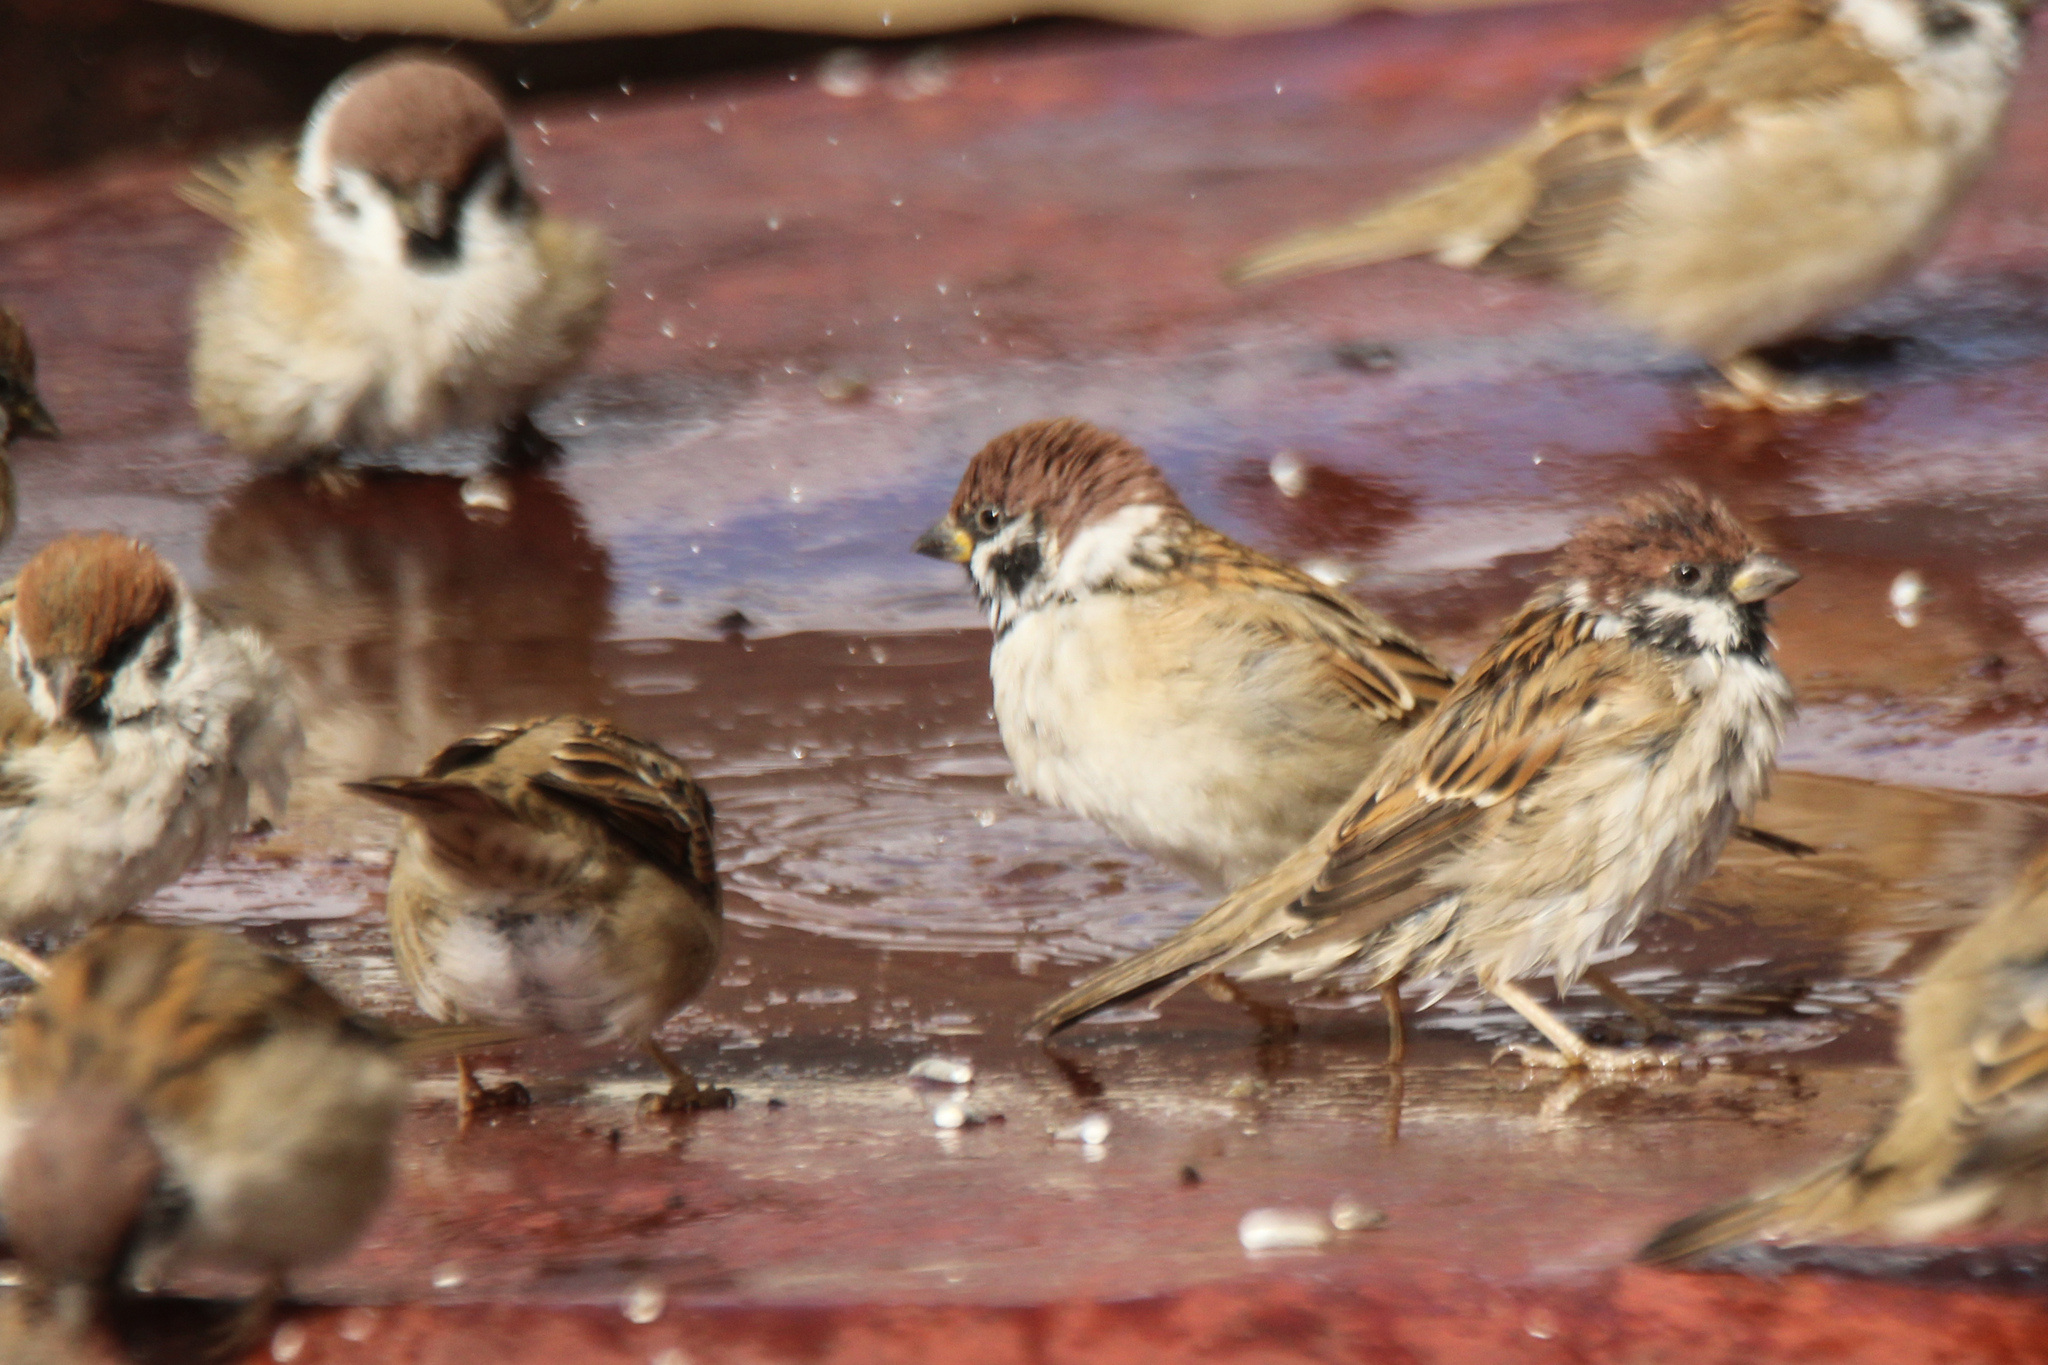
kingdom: Animalia
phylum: Chordata
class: Aves
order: Passeriformes
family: Passeridae
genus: Passer
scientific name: Passer montanus
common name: Eurasian tree sparrow
